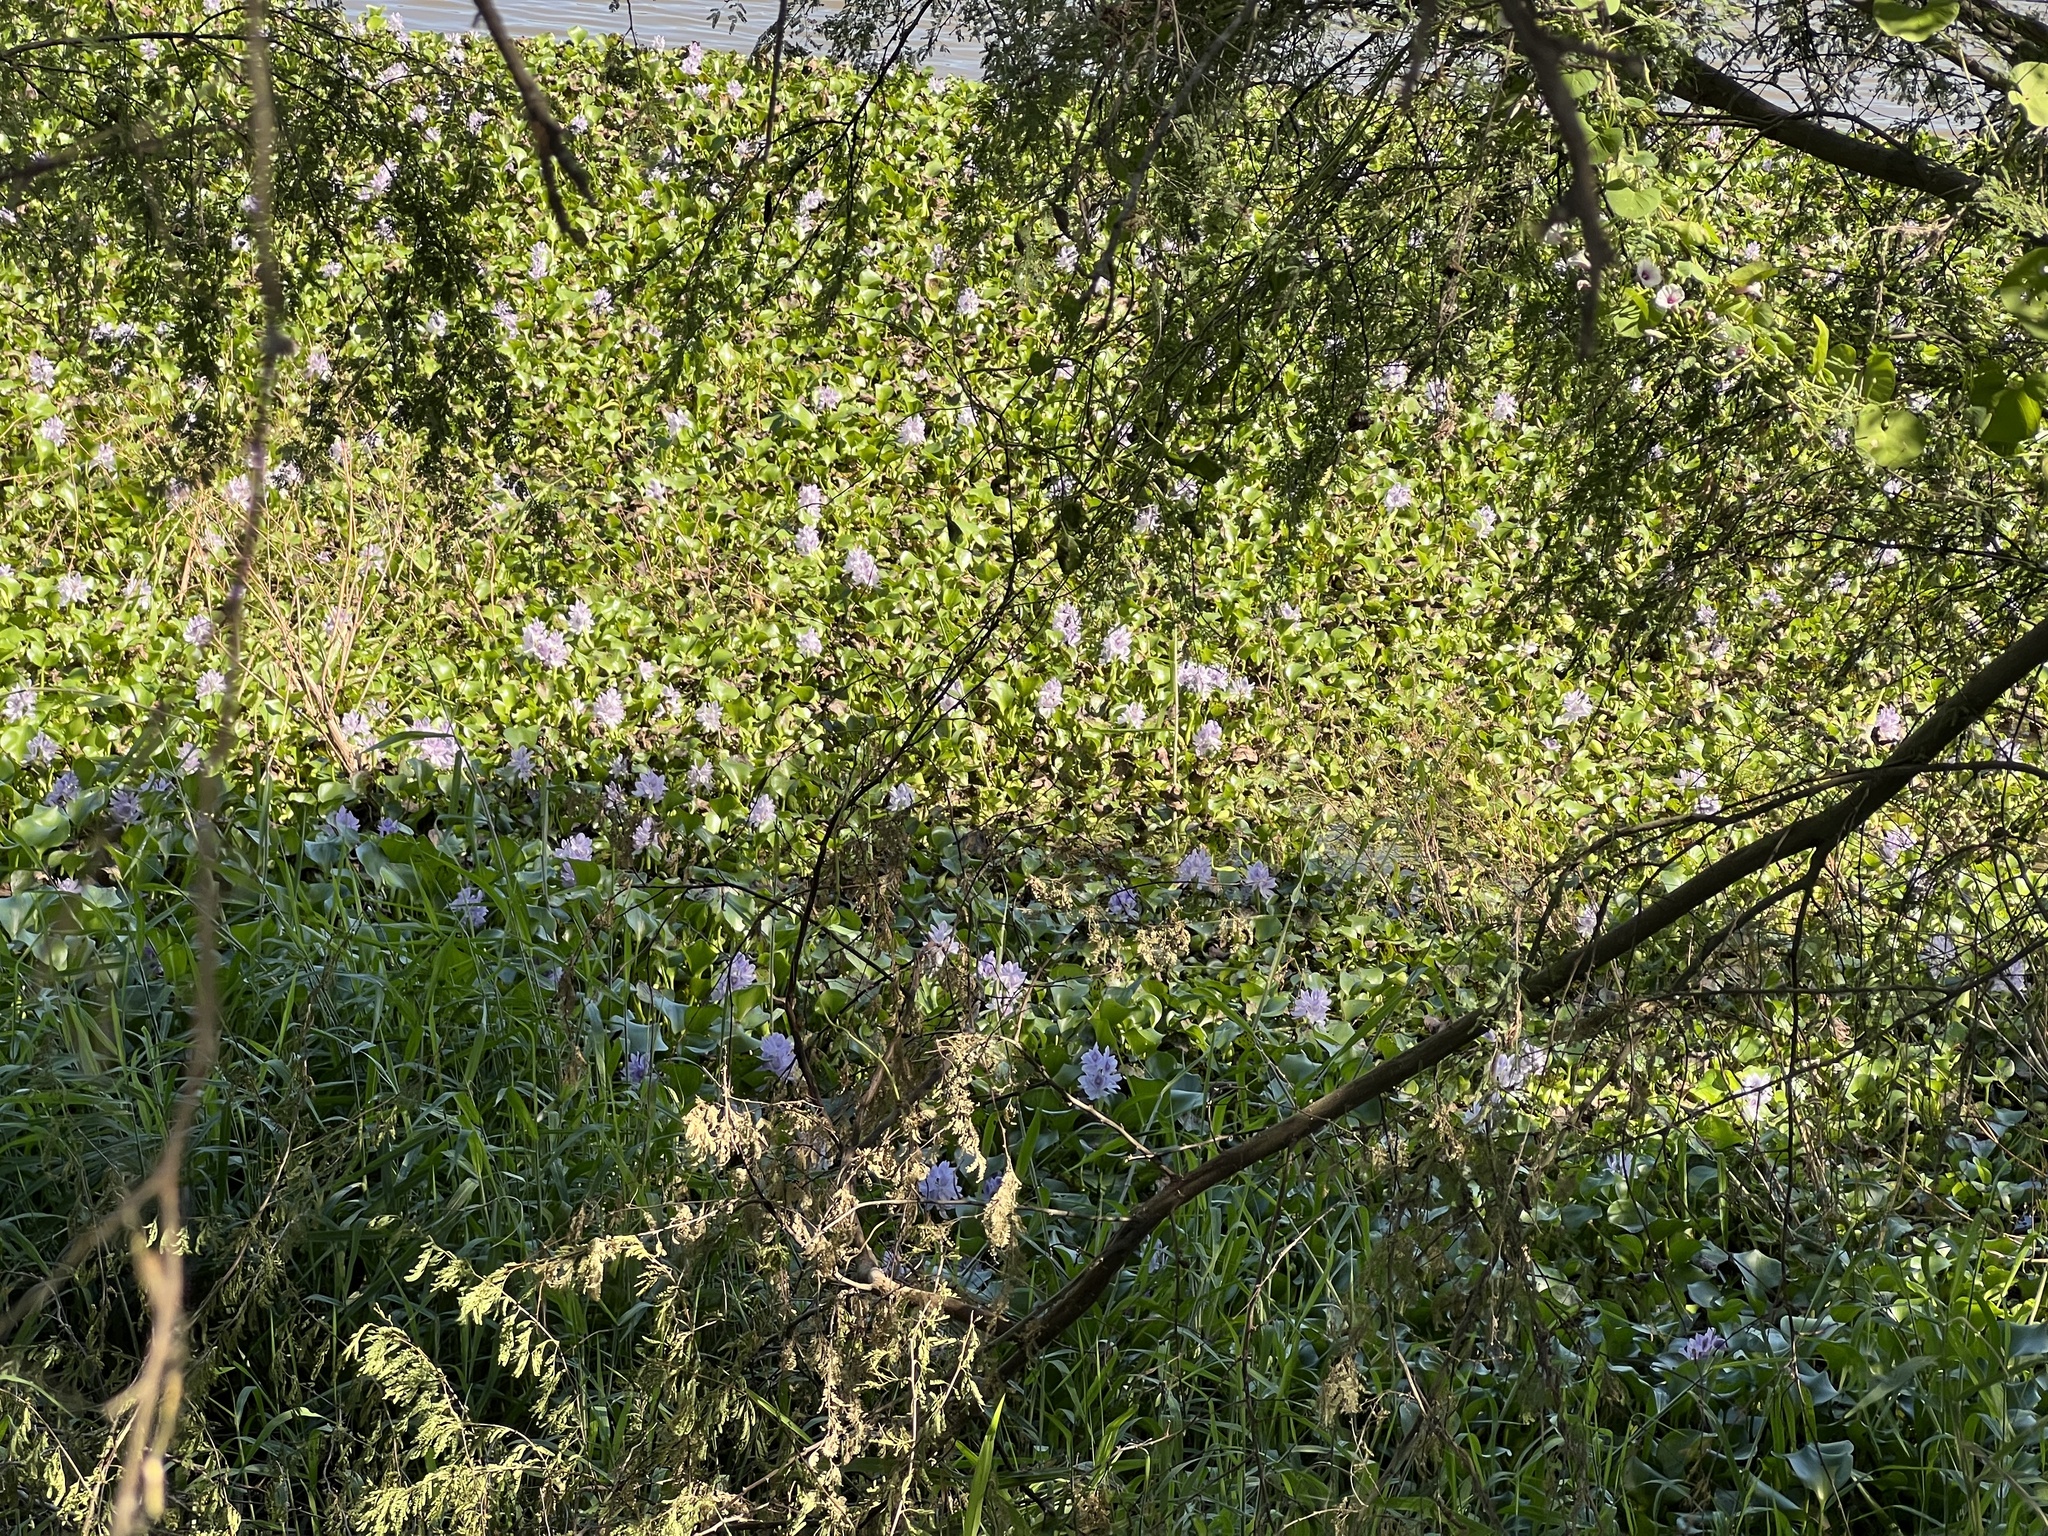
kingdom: Plantae
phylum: Tracheophyta
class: Liliopsida
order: Commelinales
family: Pontederiaceae
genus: Pontederia
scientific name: Pontederia crassipes
